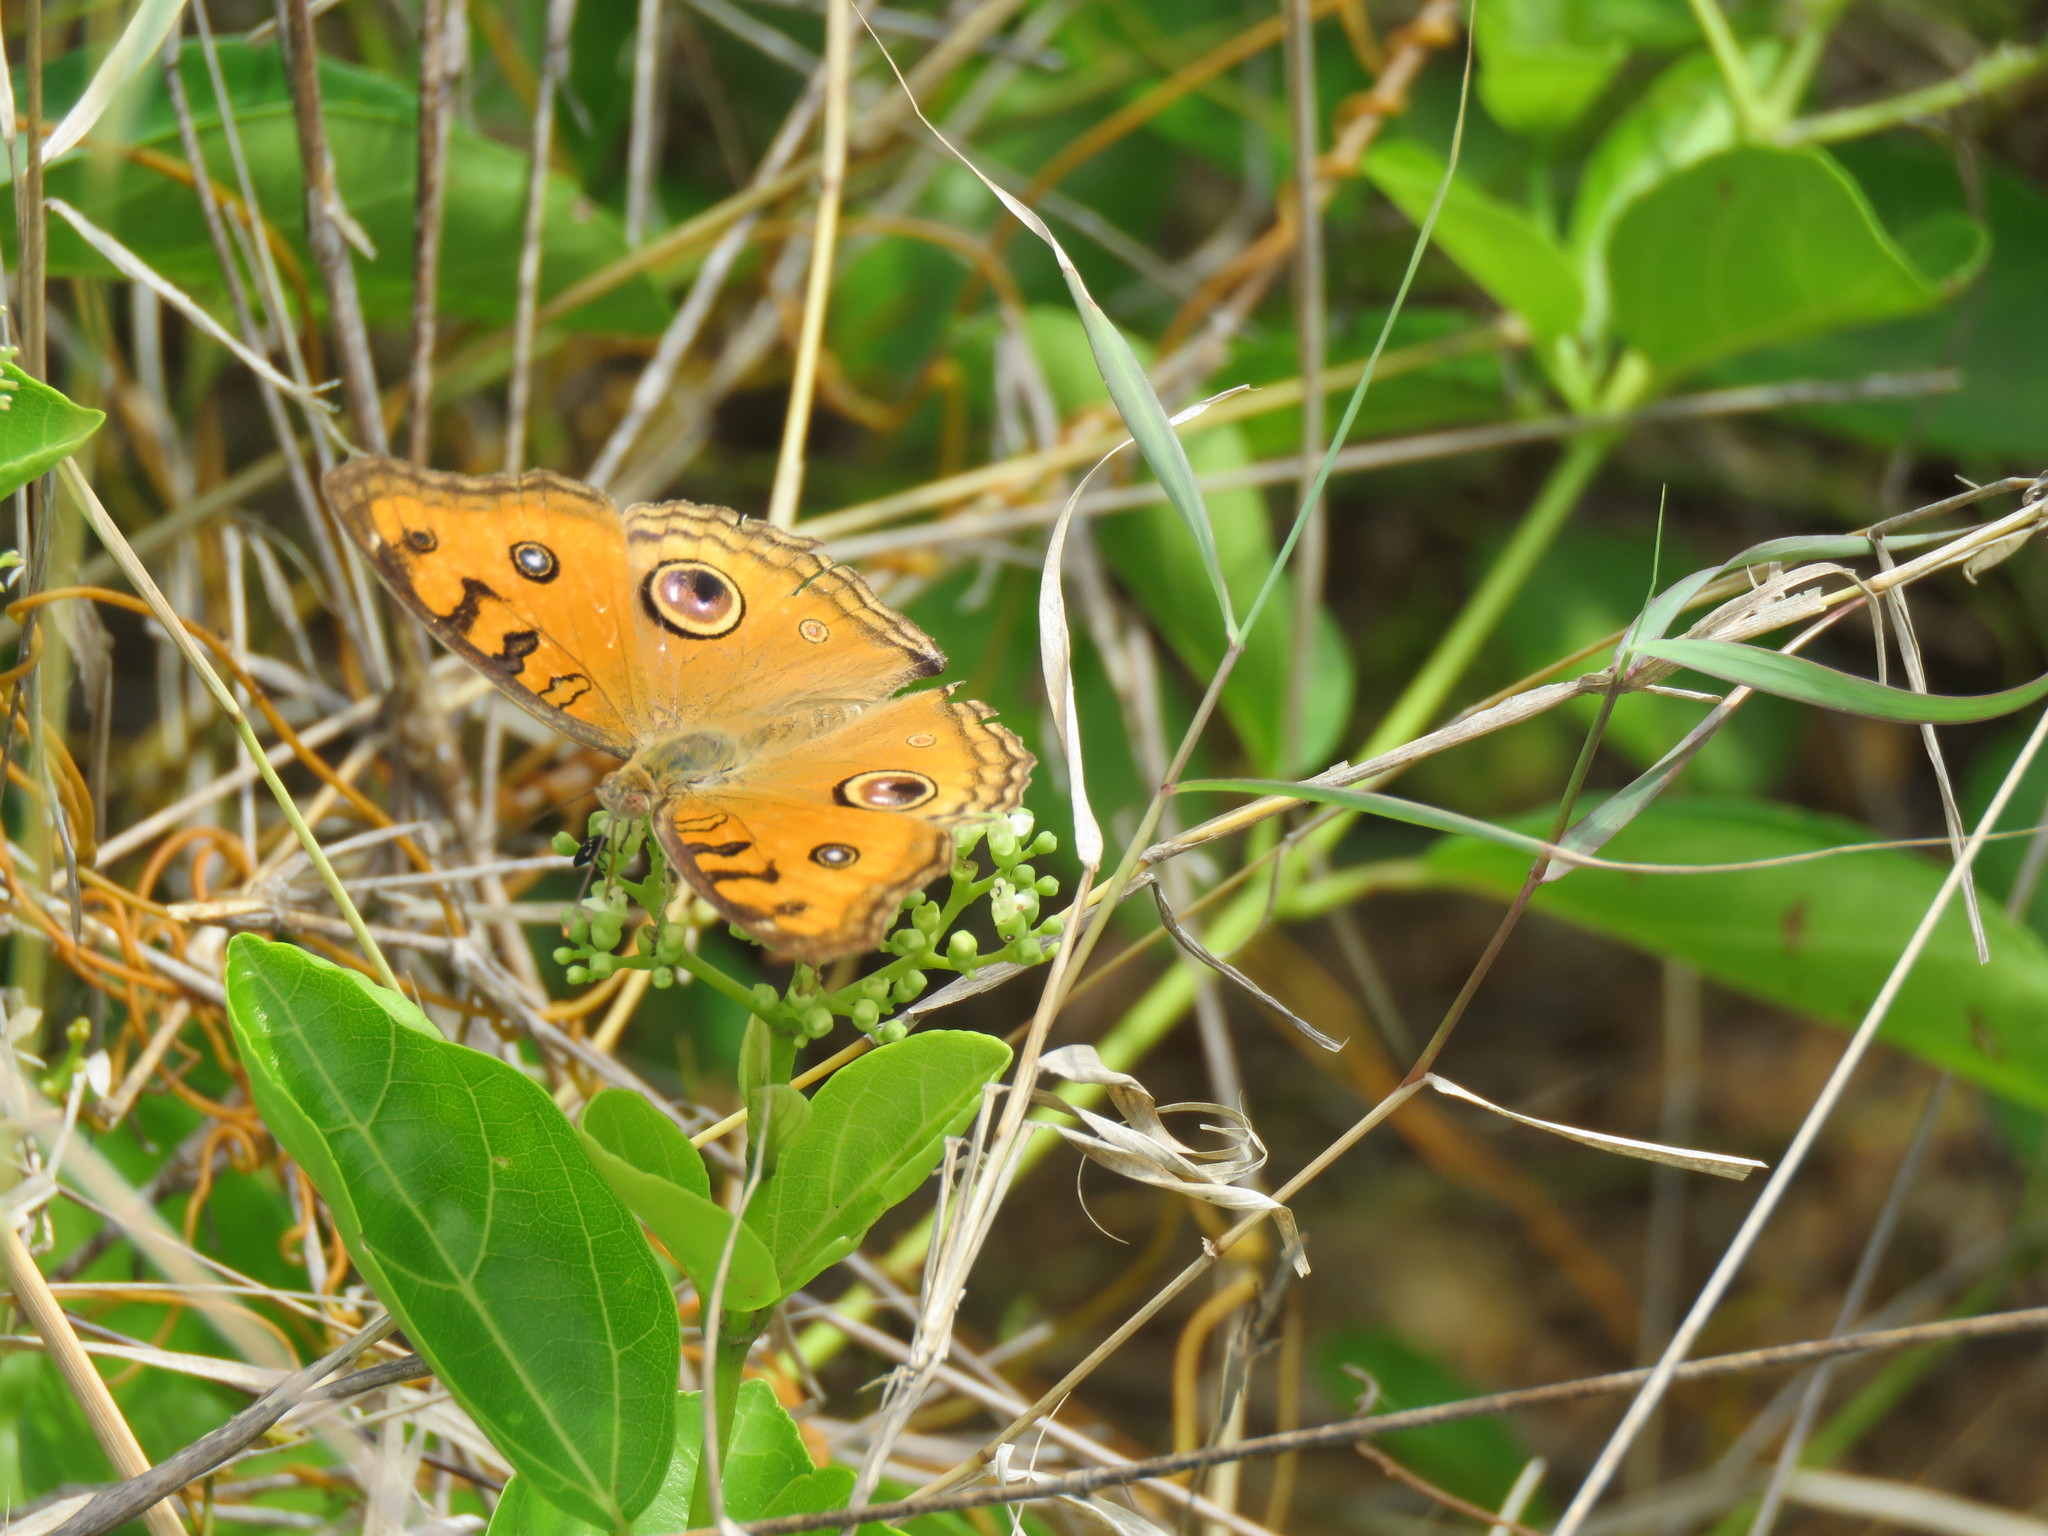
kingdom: Animalia
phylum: Arthropoda
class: Insecta
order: Lepidoptera
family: Nymphalidae
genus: Junonia
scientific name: Junonia almana
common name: Peacock pansy
